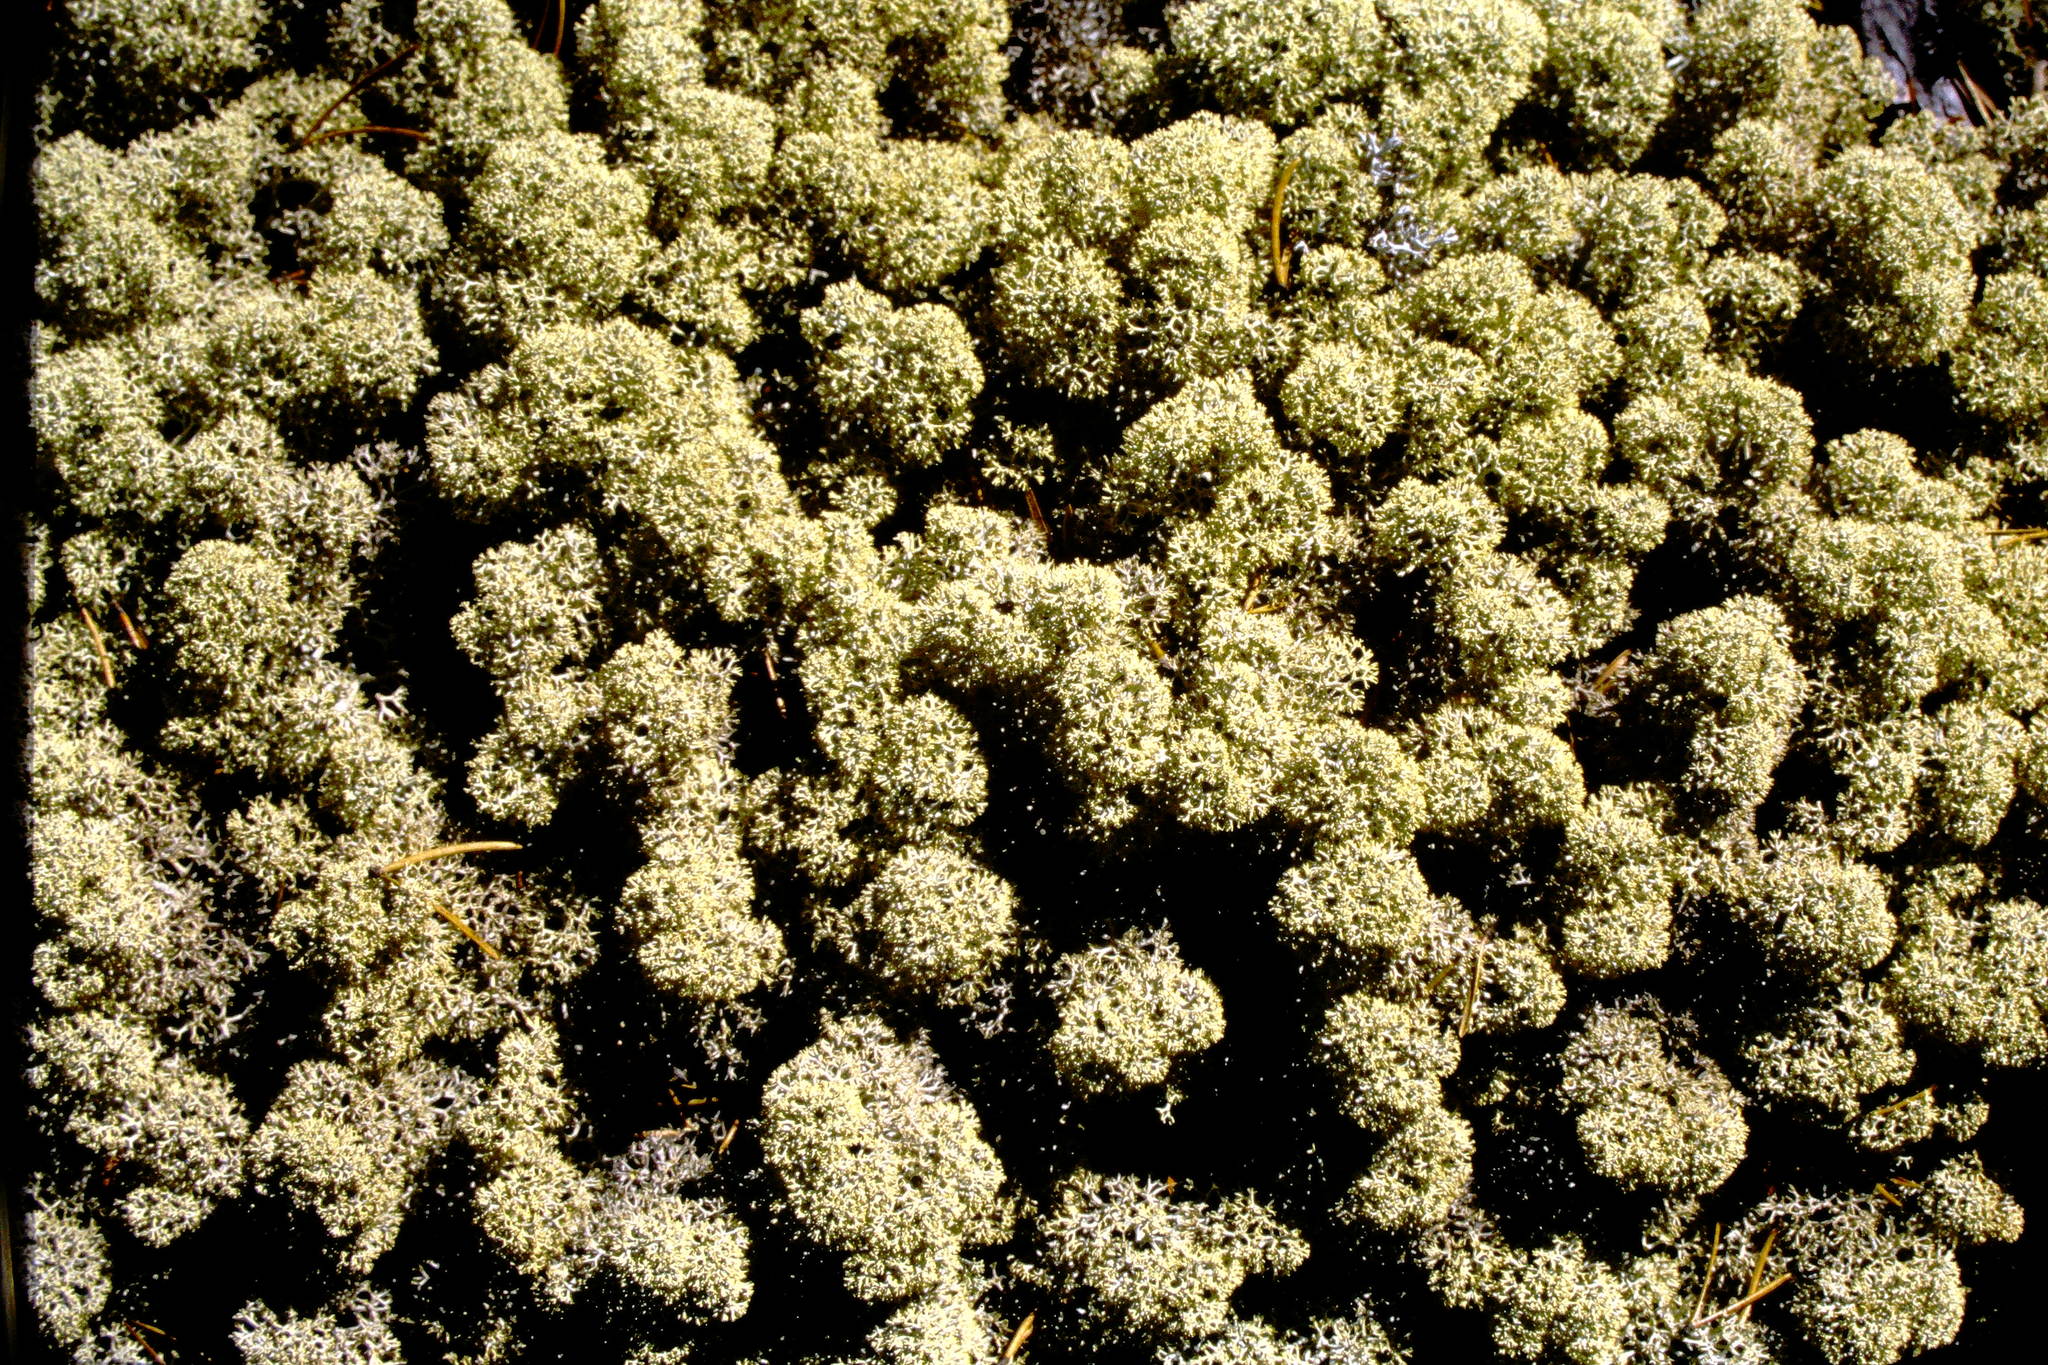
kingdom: Fungi
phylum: Ascomycota
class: Lecanoromycetes
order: Lecanorales
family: Cladoniaceae
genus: Cladonia
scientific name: Cladonia stellaris
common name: Star-tipped reindeer lichen
